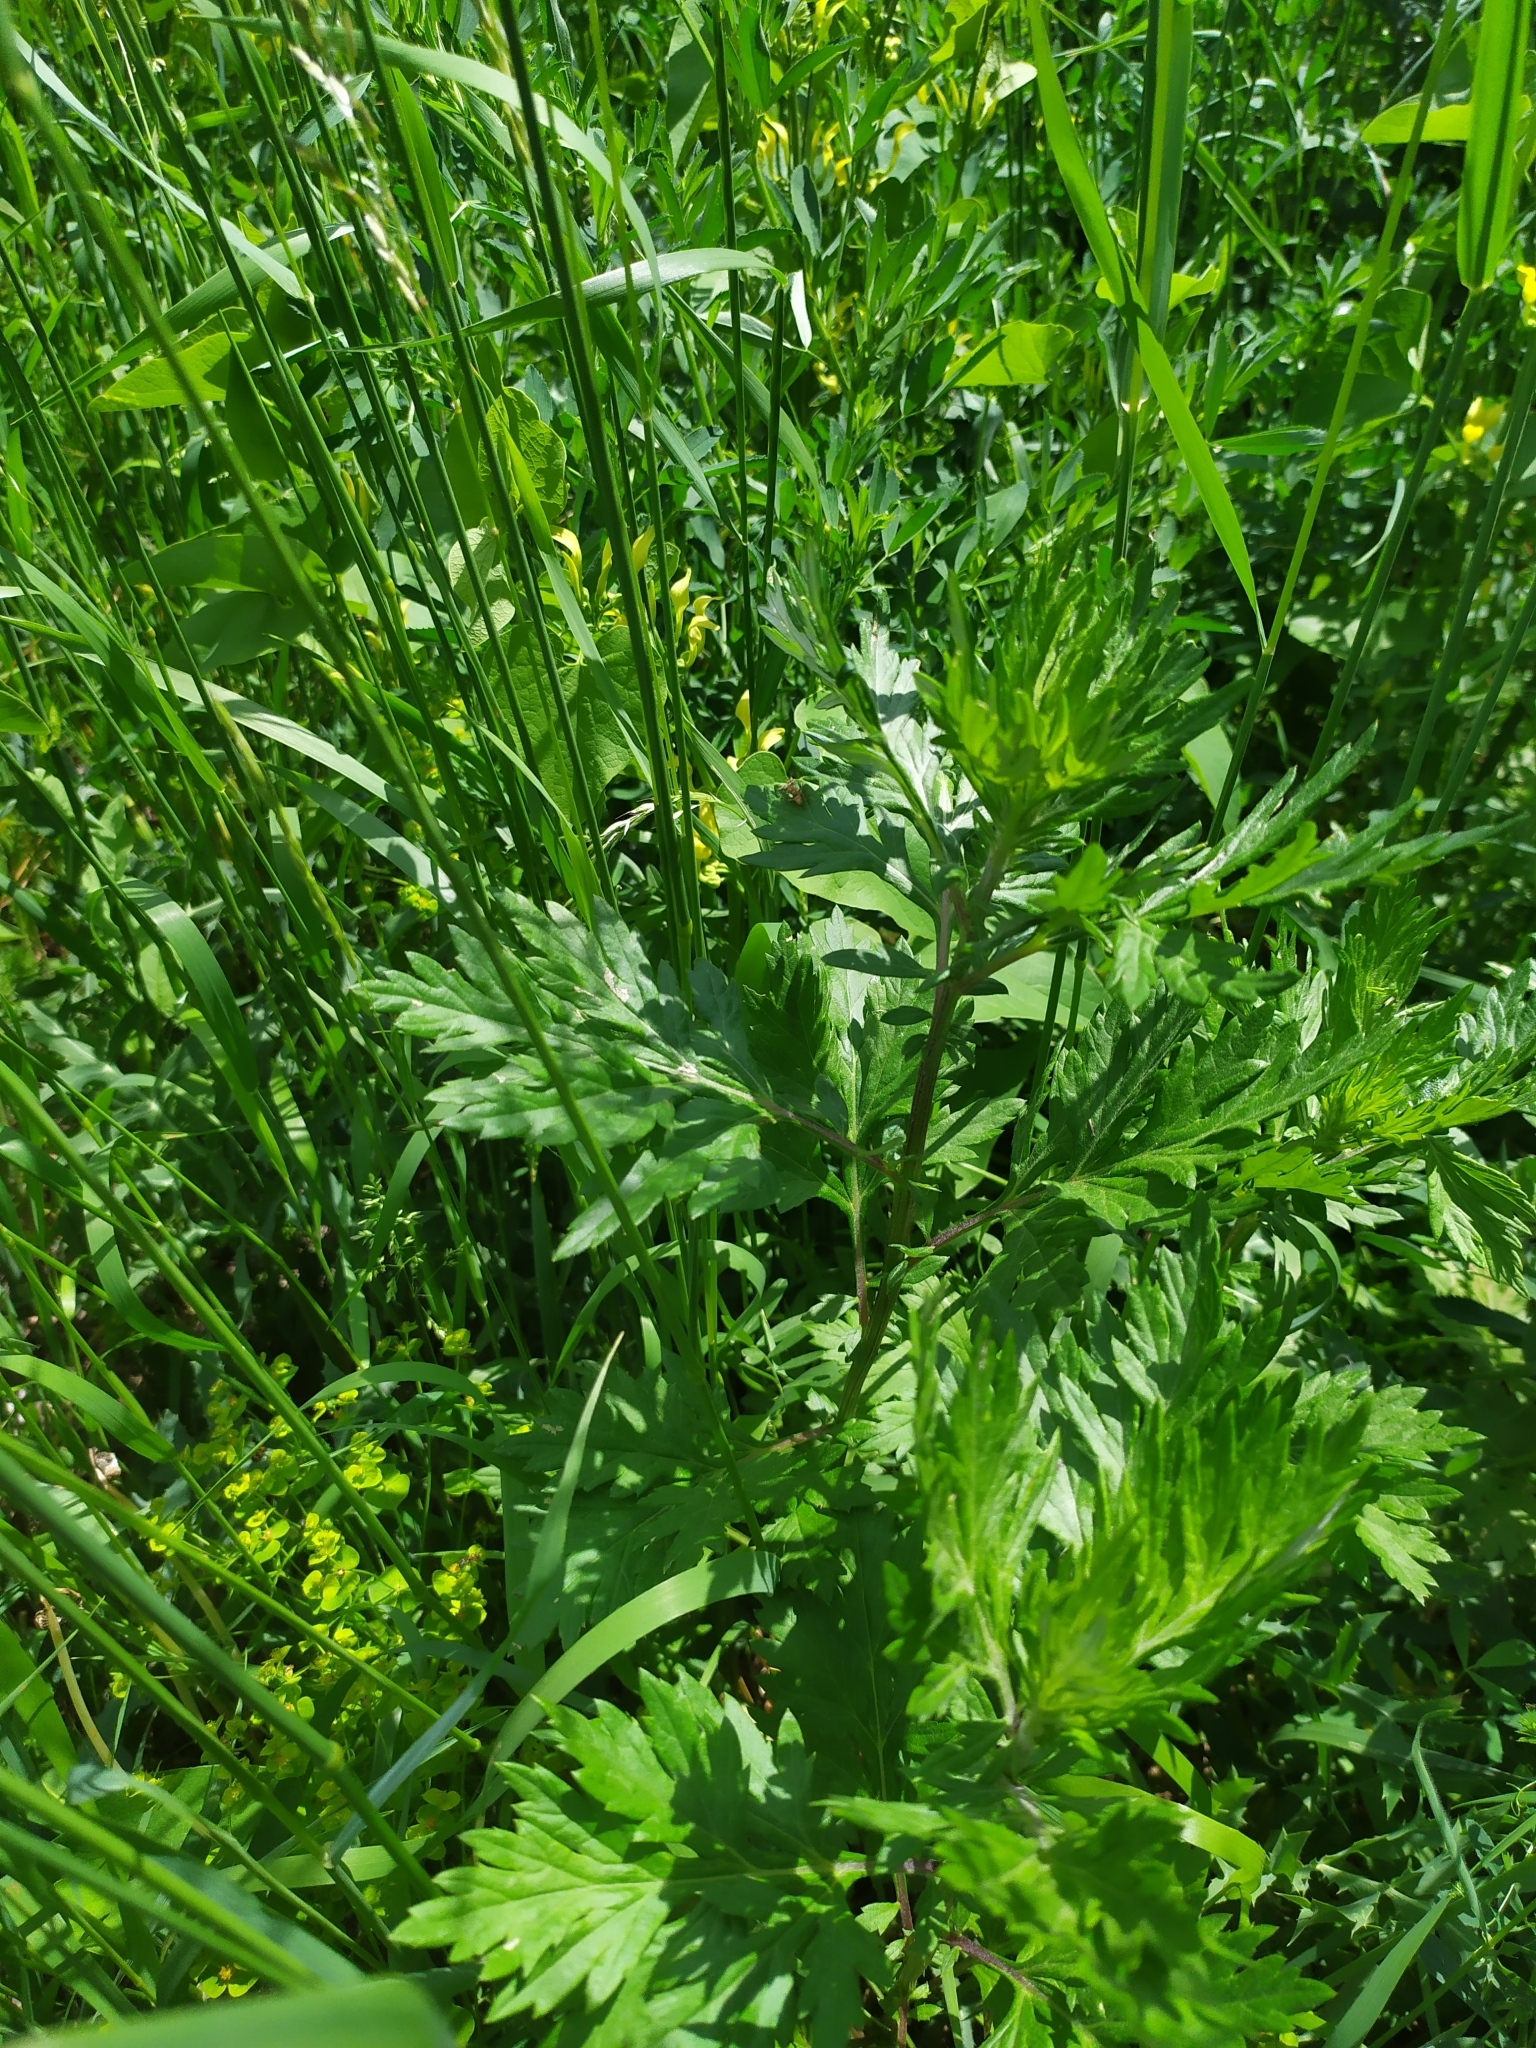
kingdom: Plantae
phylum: Tracheophyta
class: Magnoliopsida
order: Asterales
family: Asteraceae
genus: Artemisia
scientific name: Artemisia vulgaris
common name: Mugwort
